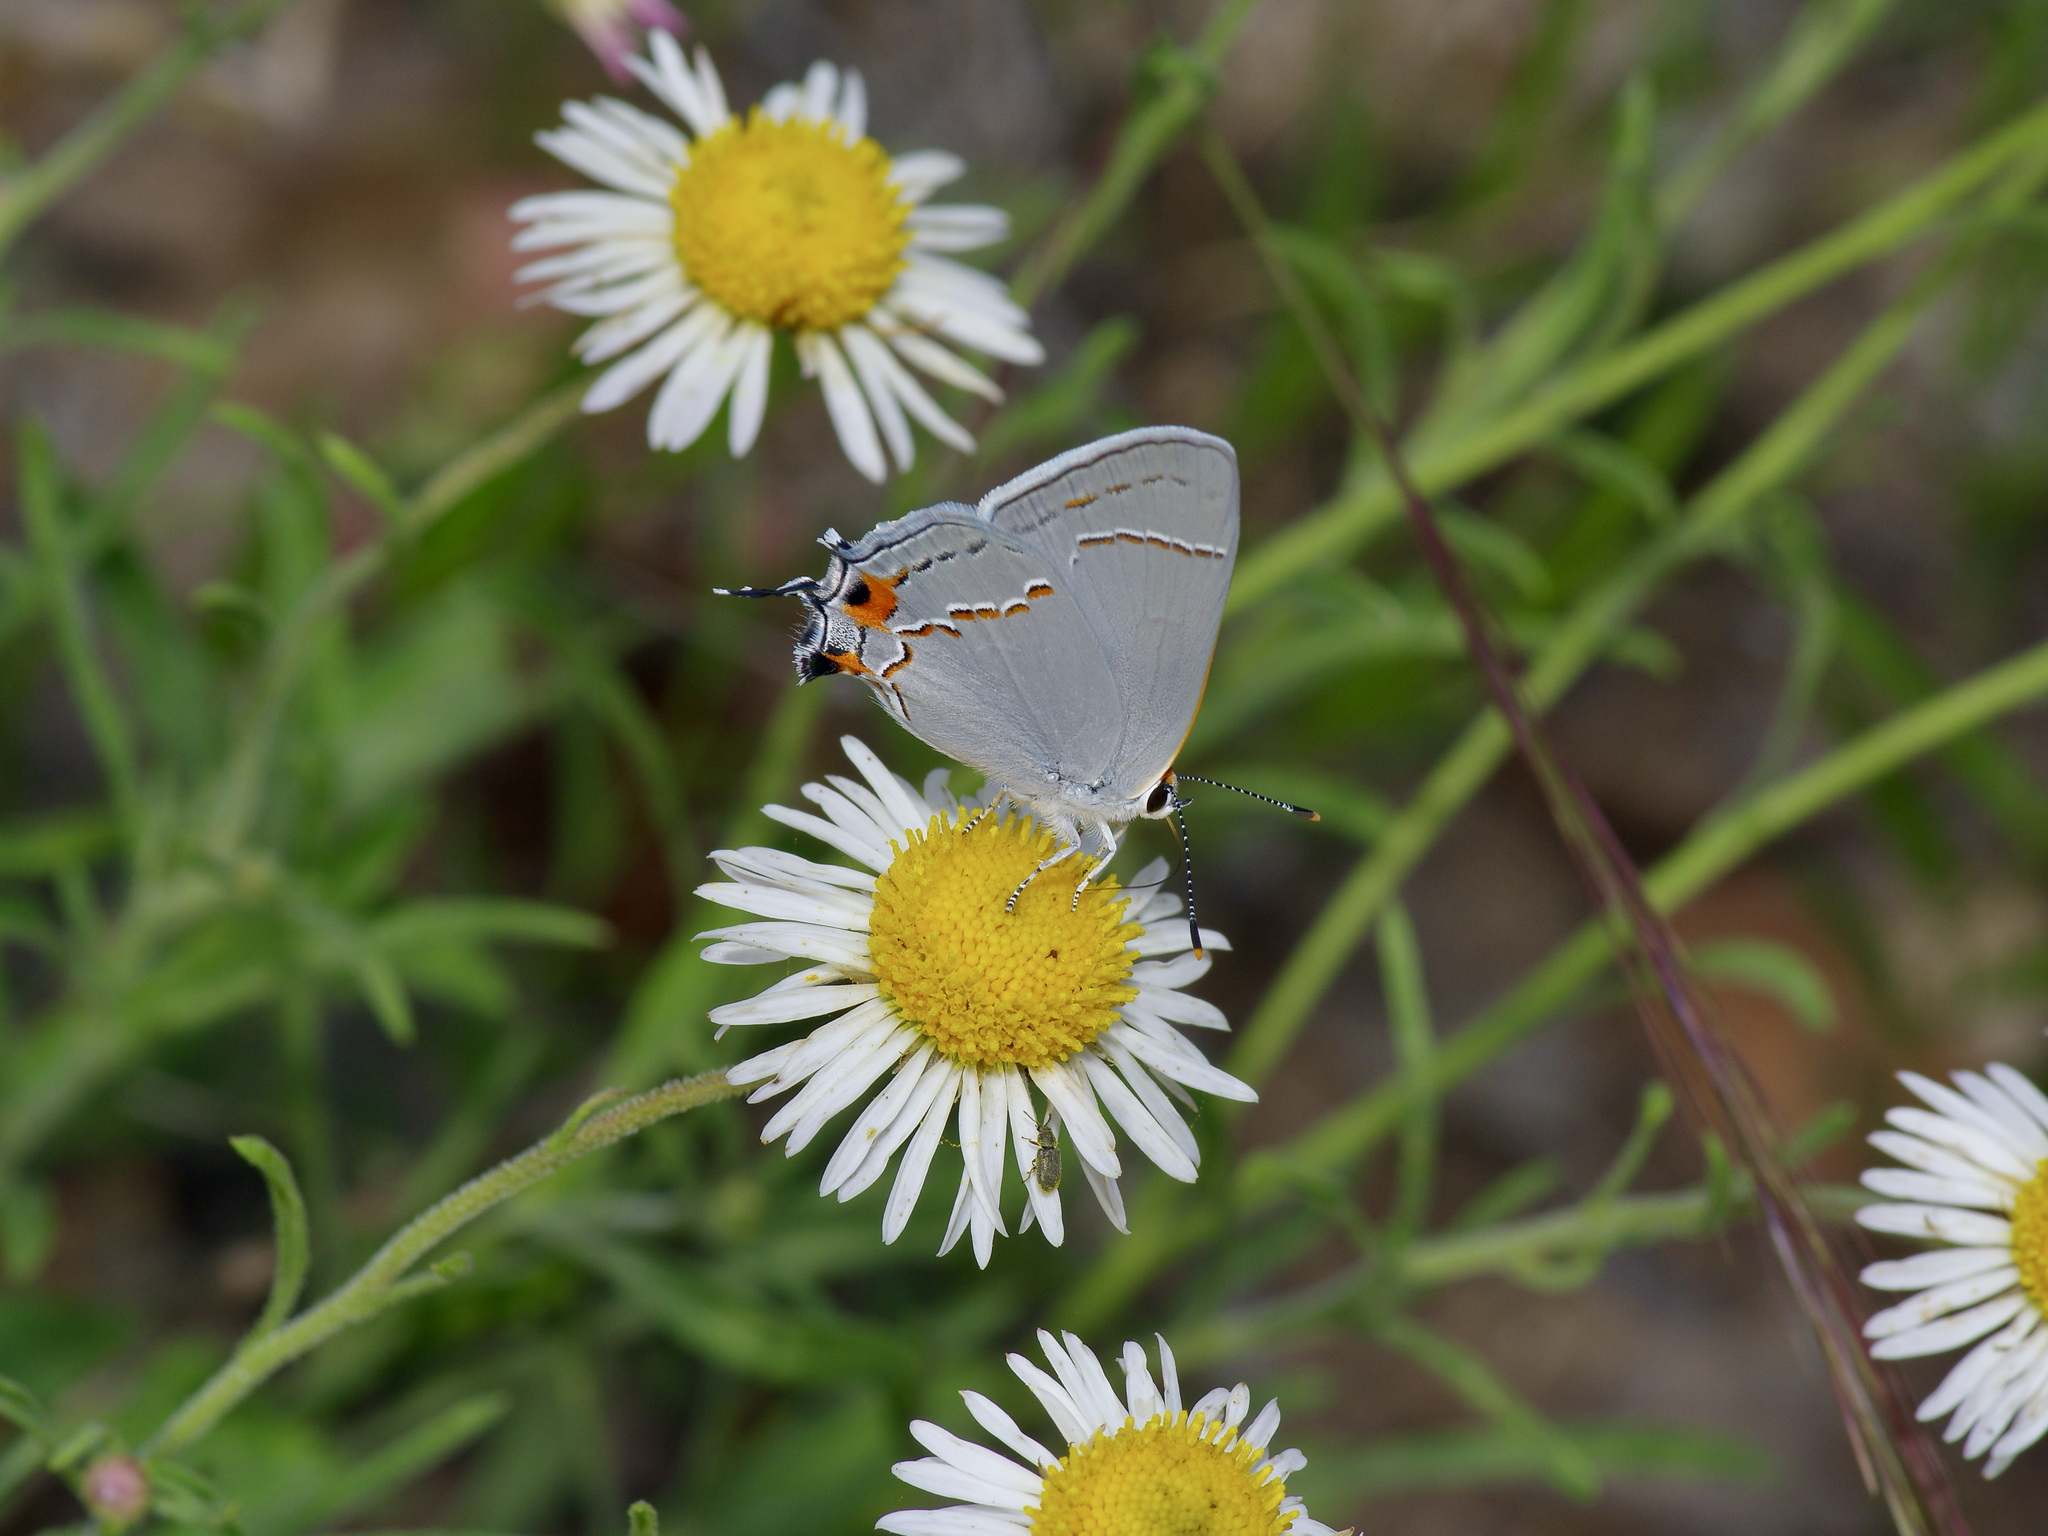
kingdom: Animalia
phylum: Arthropoda
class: Insecta
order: Lepidoptera
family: Lycaenidae
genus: Strymon
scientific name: Strymon melinus
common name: Gray hairstreak
